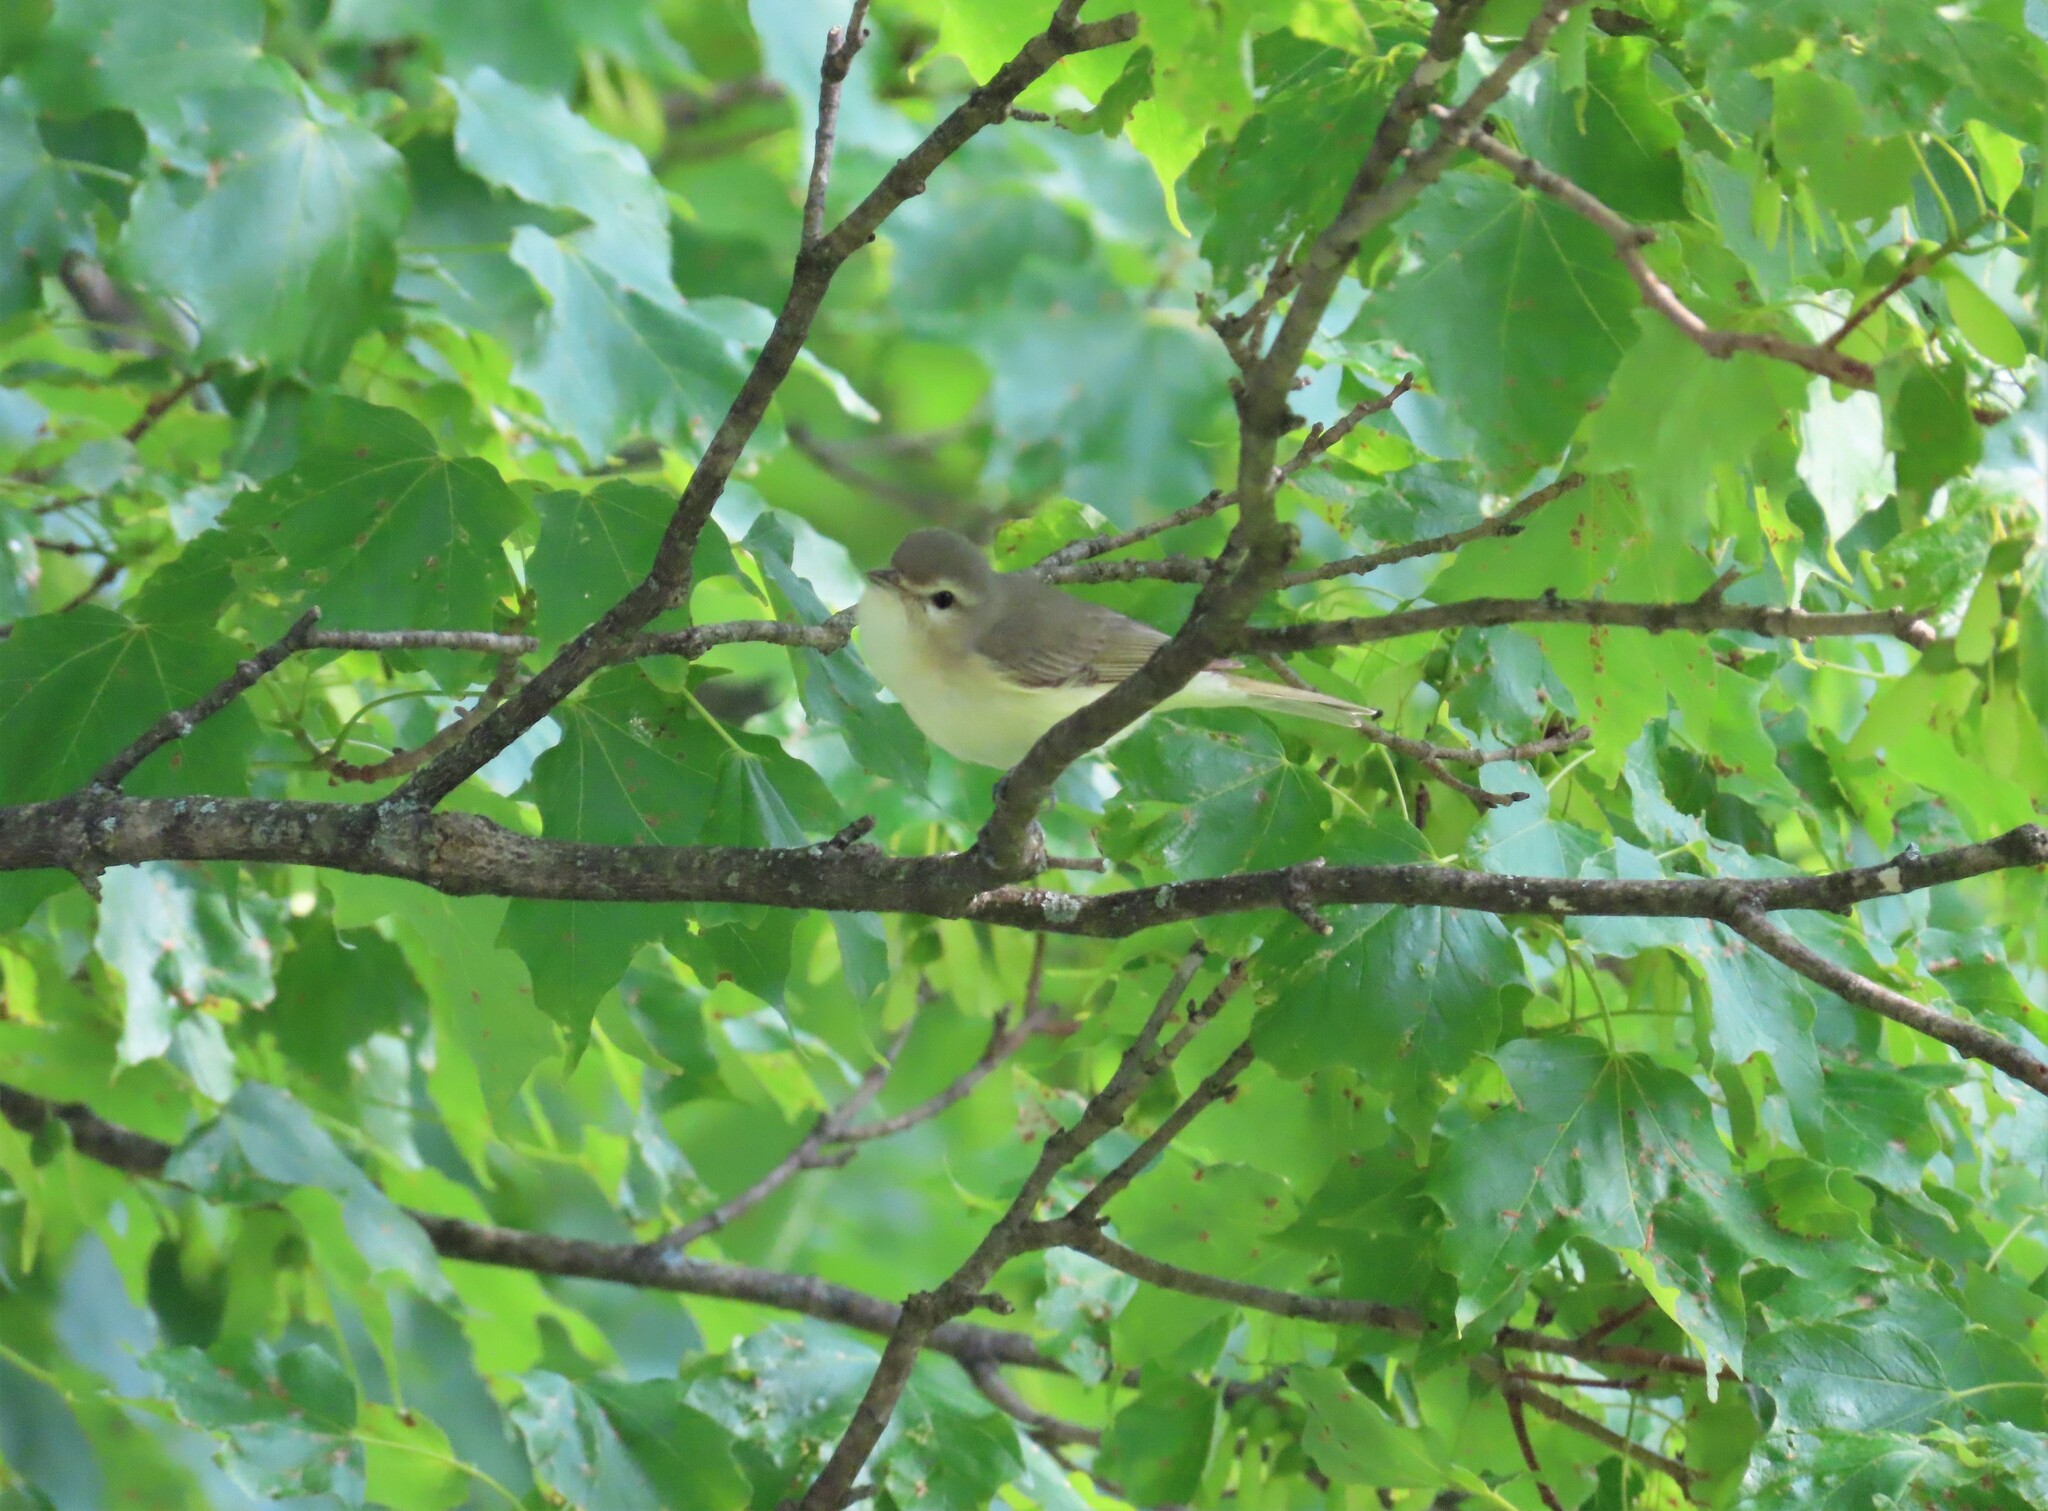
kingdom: Animalia
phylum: Chordata
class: Aves
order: Passeriformes
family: Vireonidae
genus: Vireo
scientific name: Vireo gilvus
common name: Warbling vireo
